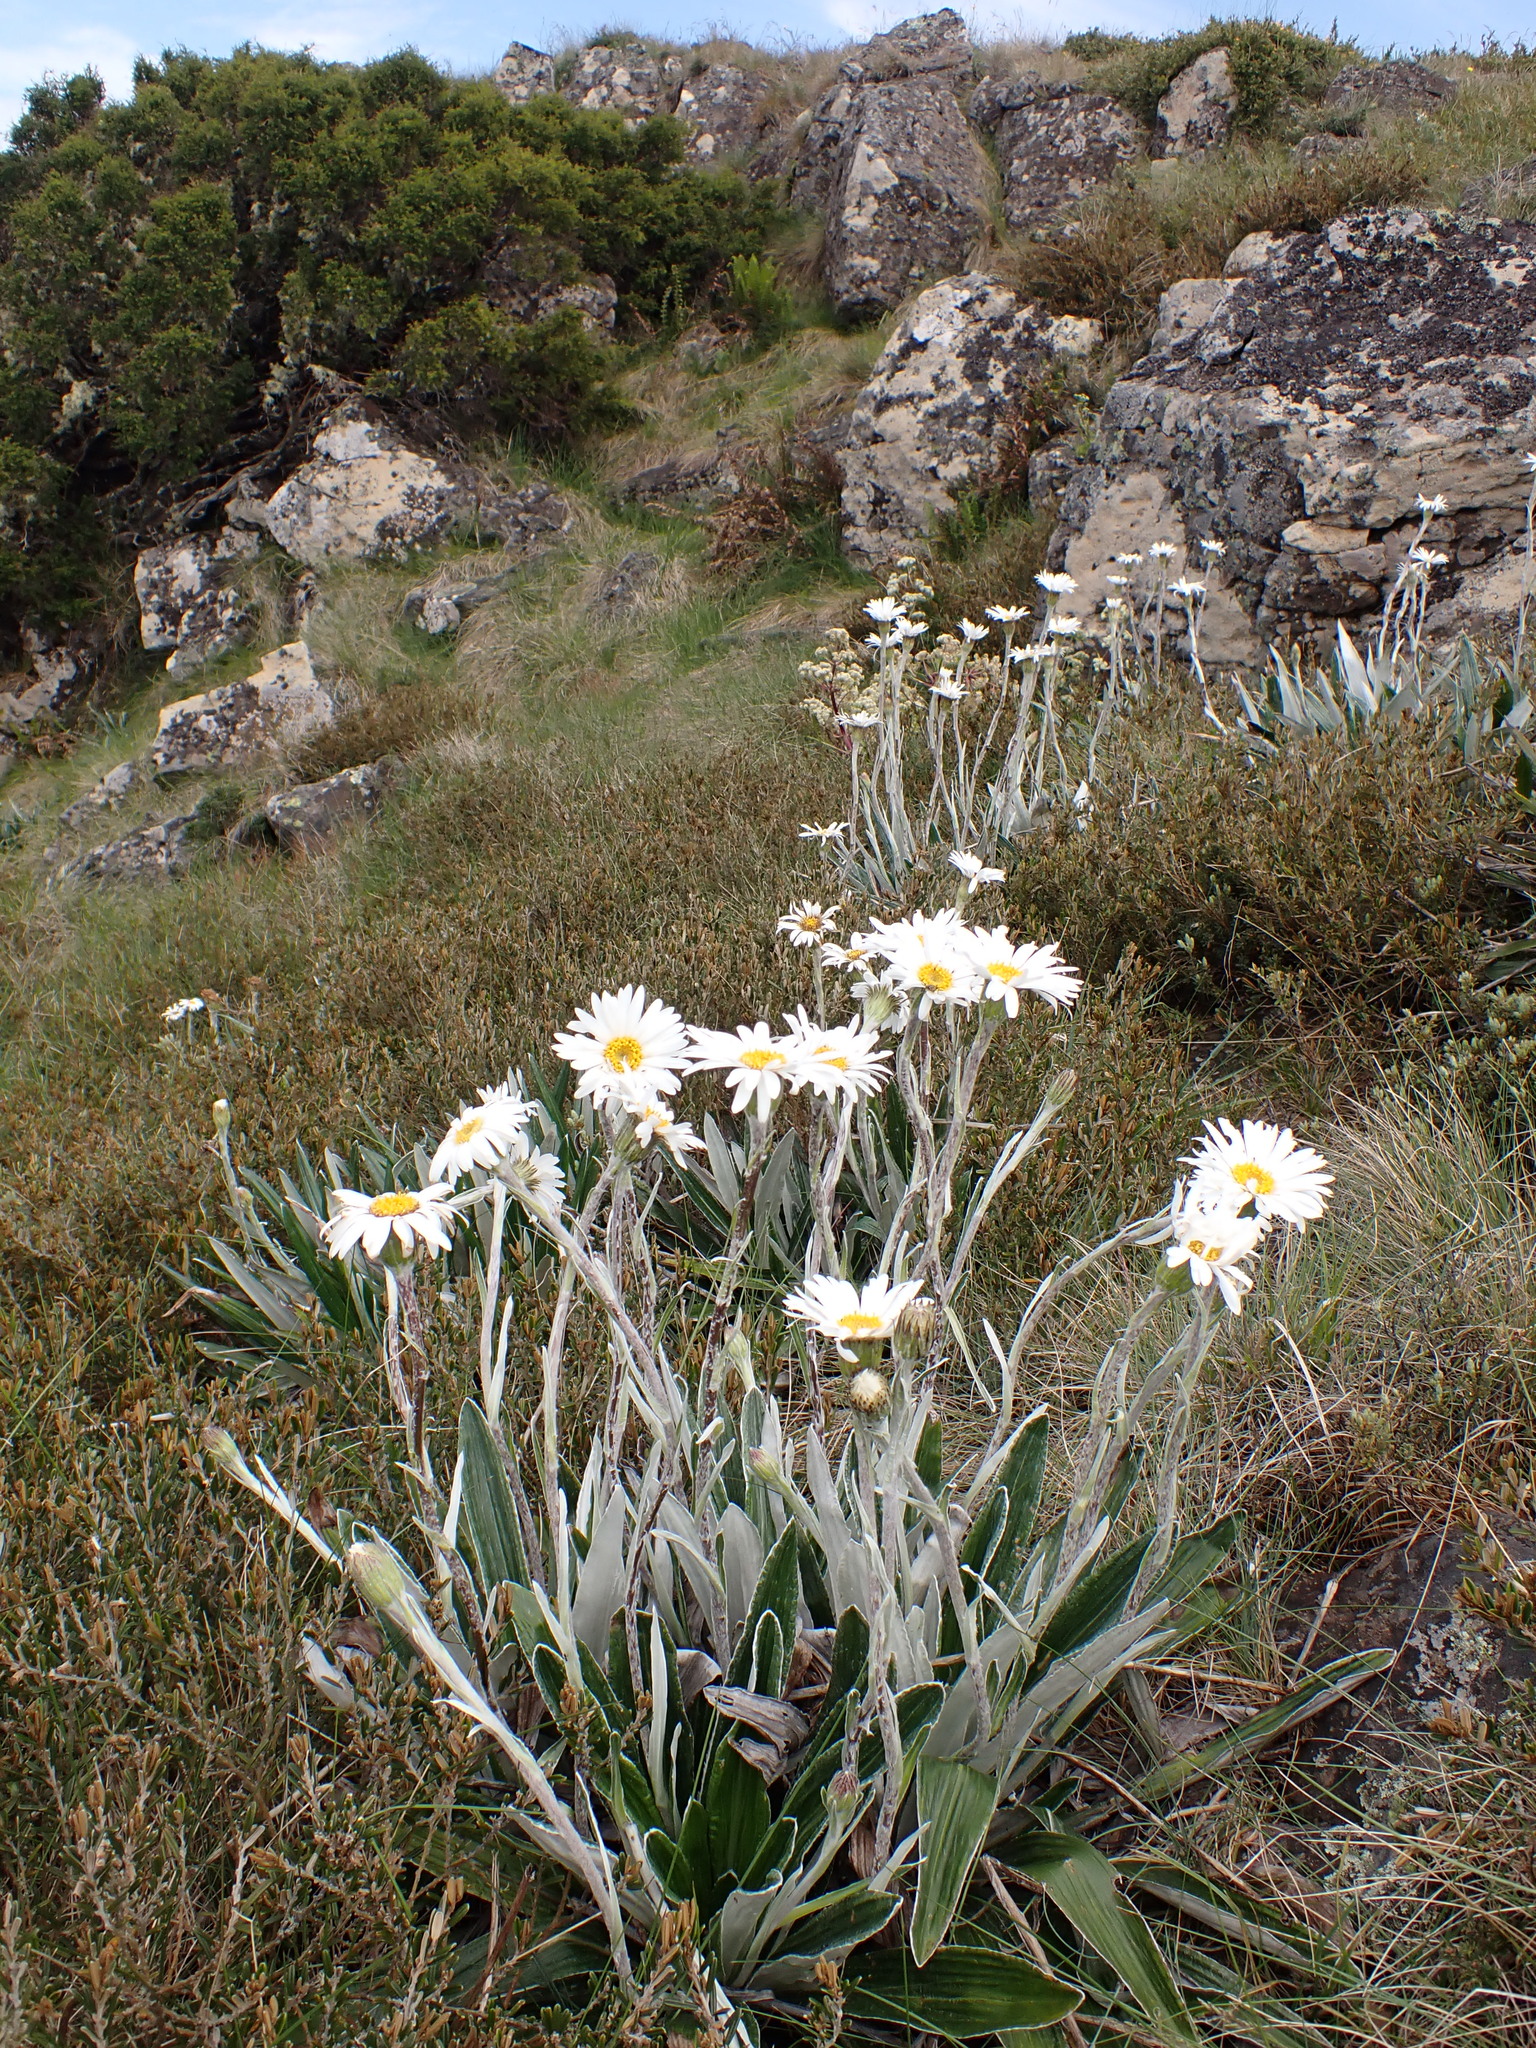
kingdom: Plantae
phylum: Tracheophyta
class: Magnoliopsida
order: Asterales
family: Asteraceae
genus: Celmisia
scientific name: Celmisia latifolia
